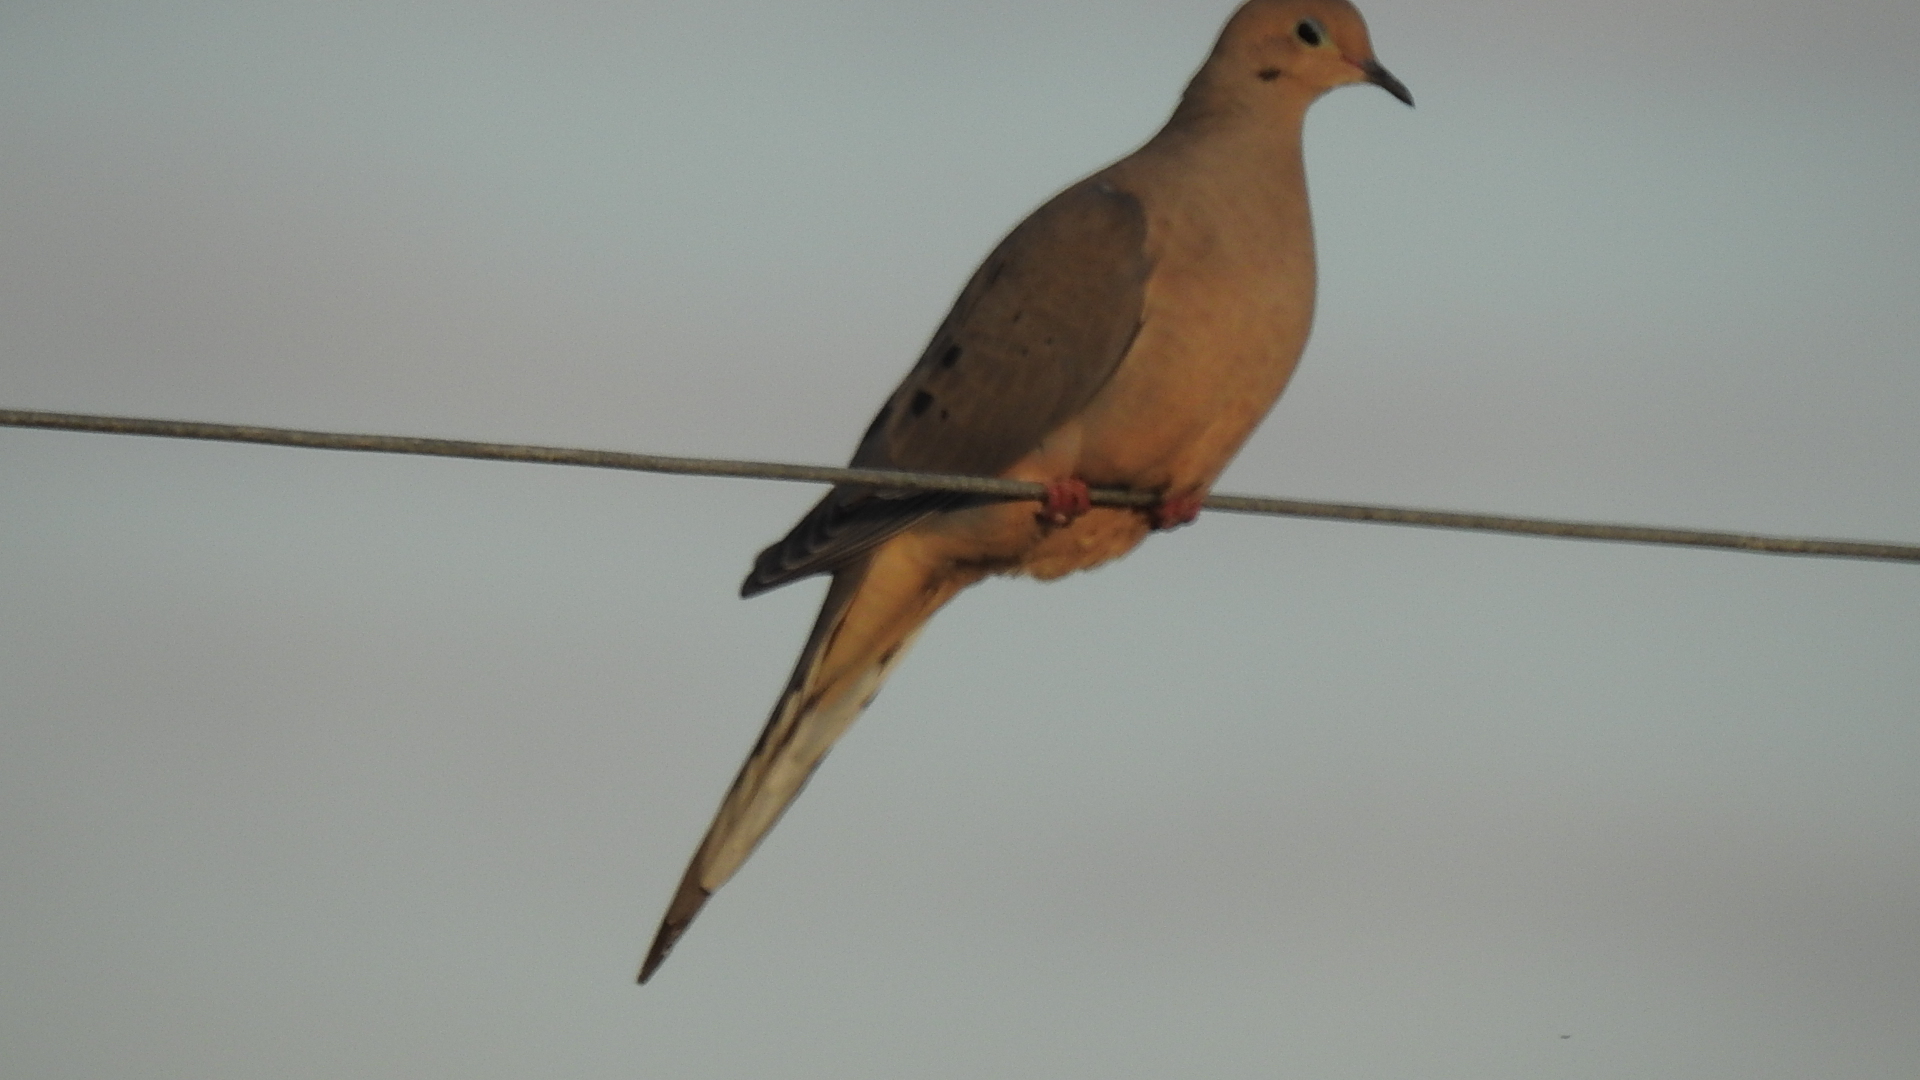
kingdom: Animalia
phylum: Chordata
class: Aves
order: Columbiformes
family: Columbidae
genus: Zenaida
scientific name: Zenaida macroura
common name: Mourning dove
